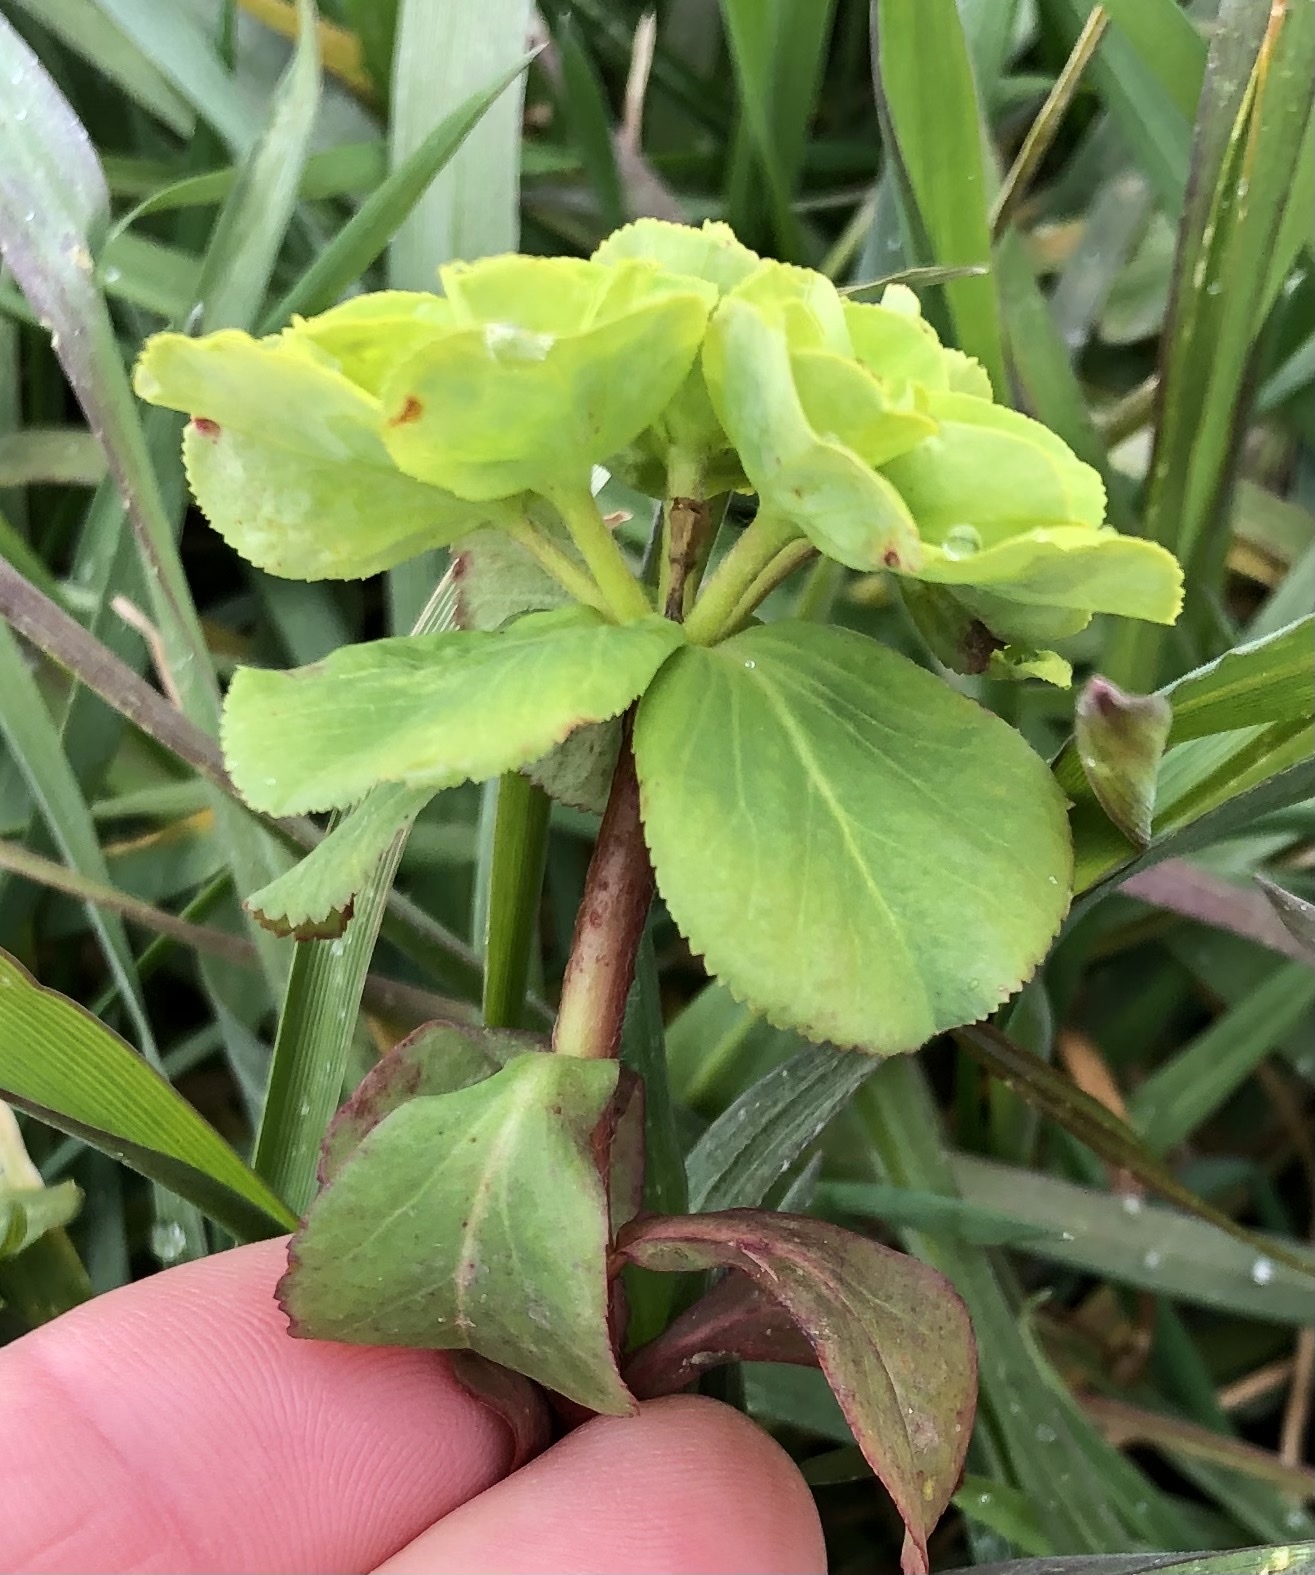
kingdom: Plantae
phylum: Tracheophyta
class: Magnoliopsida
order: Malpighiales
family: Euphorbiaceae
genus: Euphorbia
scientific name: Euphorbia helioscopia
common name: Sun spurge
